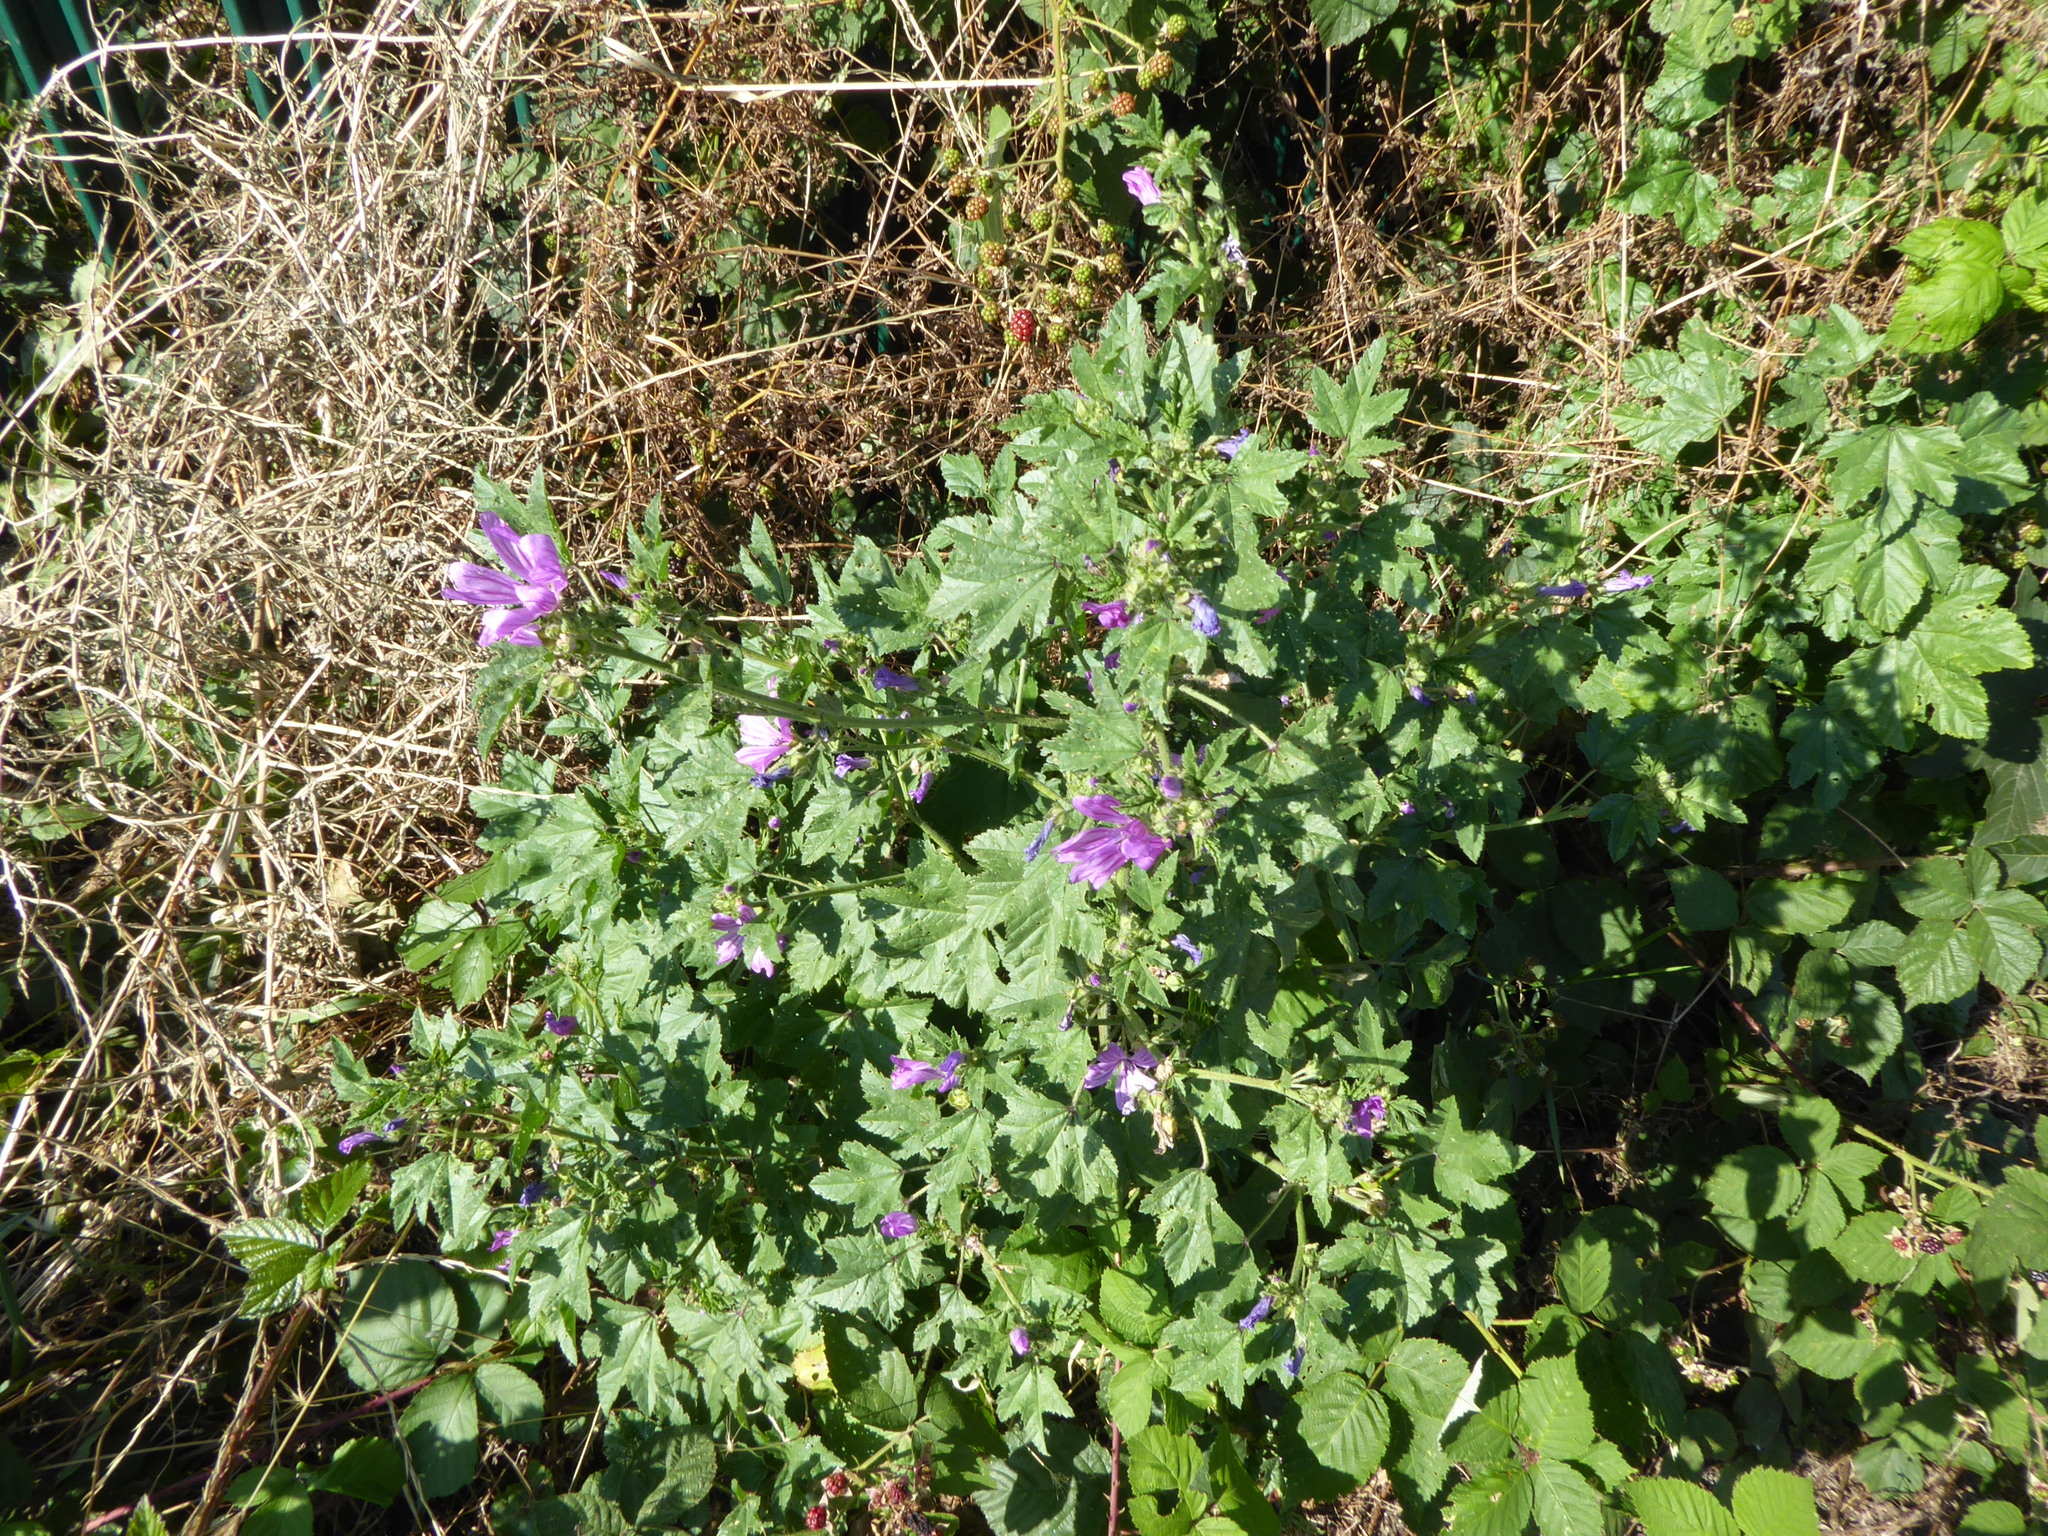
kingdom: Plantae
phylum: Tracheophyta
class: Magnoliopsida
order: Malvales
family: Malvaceae
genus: Malva
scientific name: Malva sylvestris
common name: Common mallow
